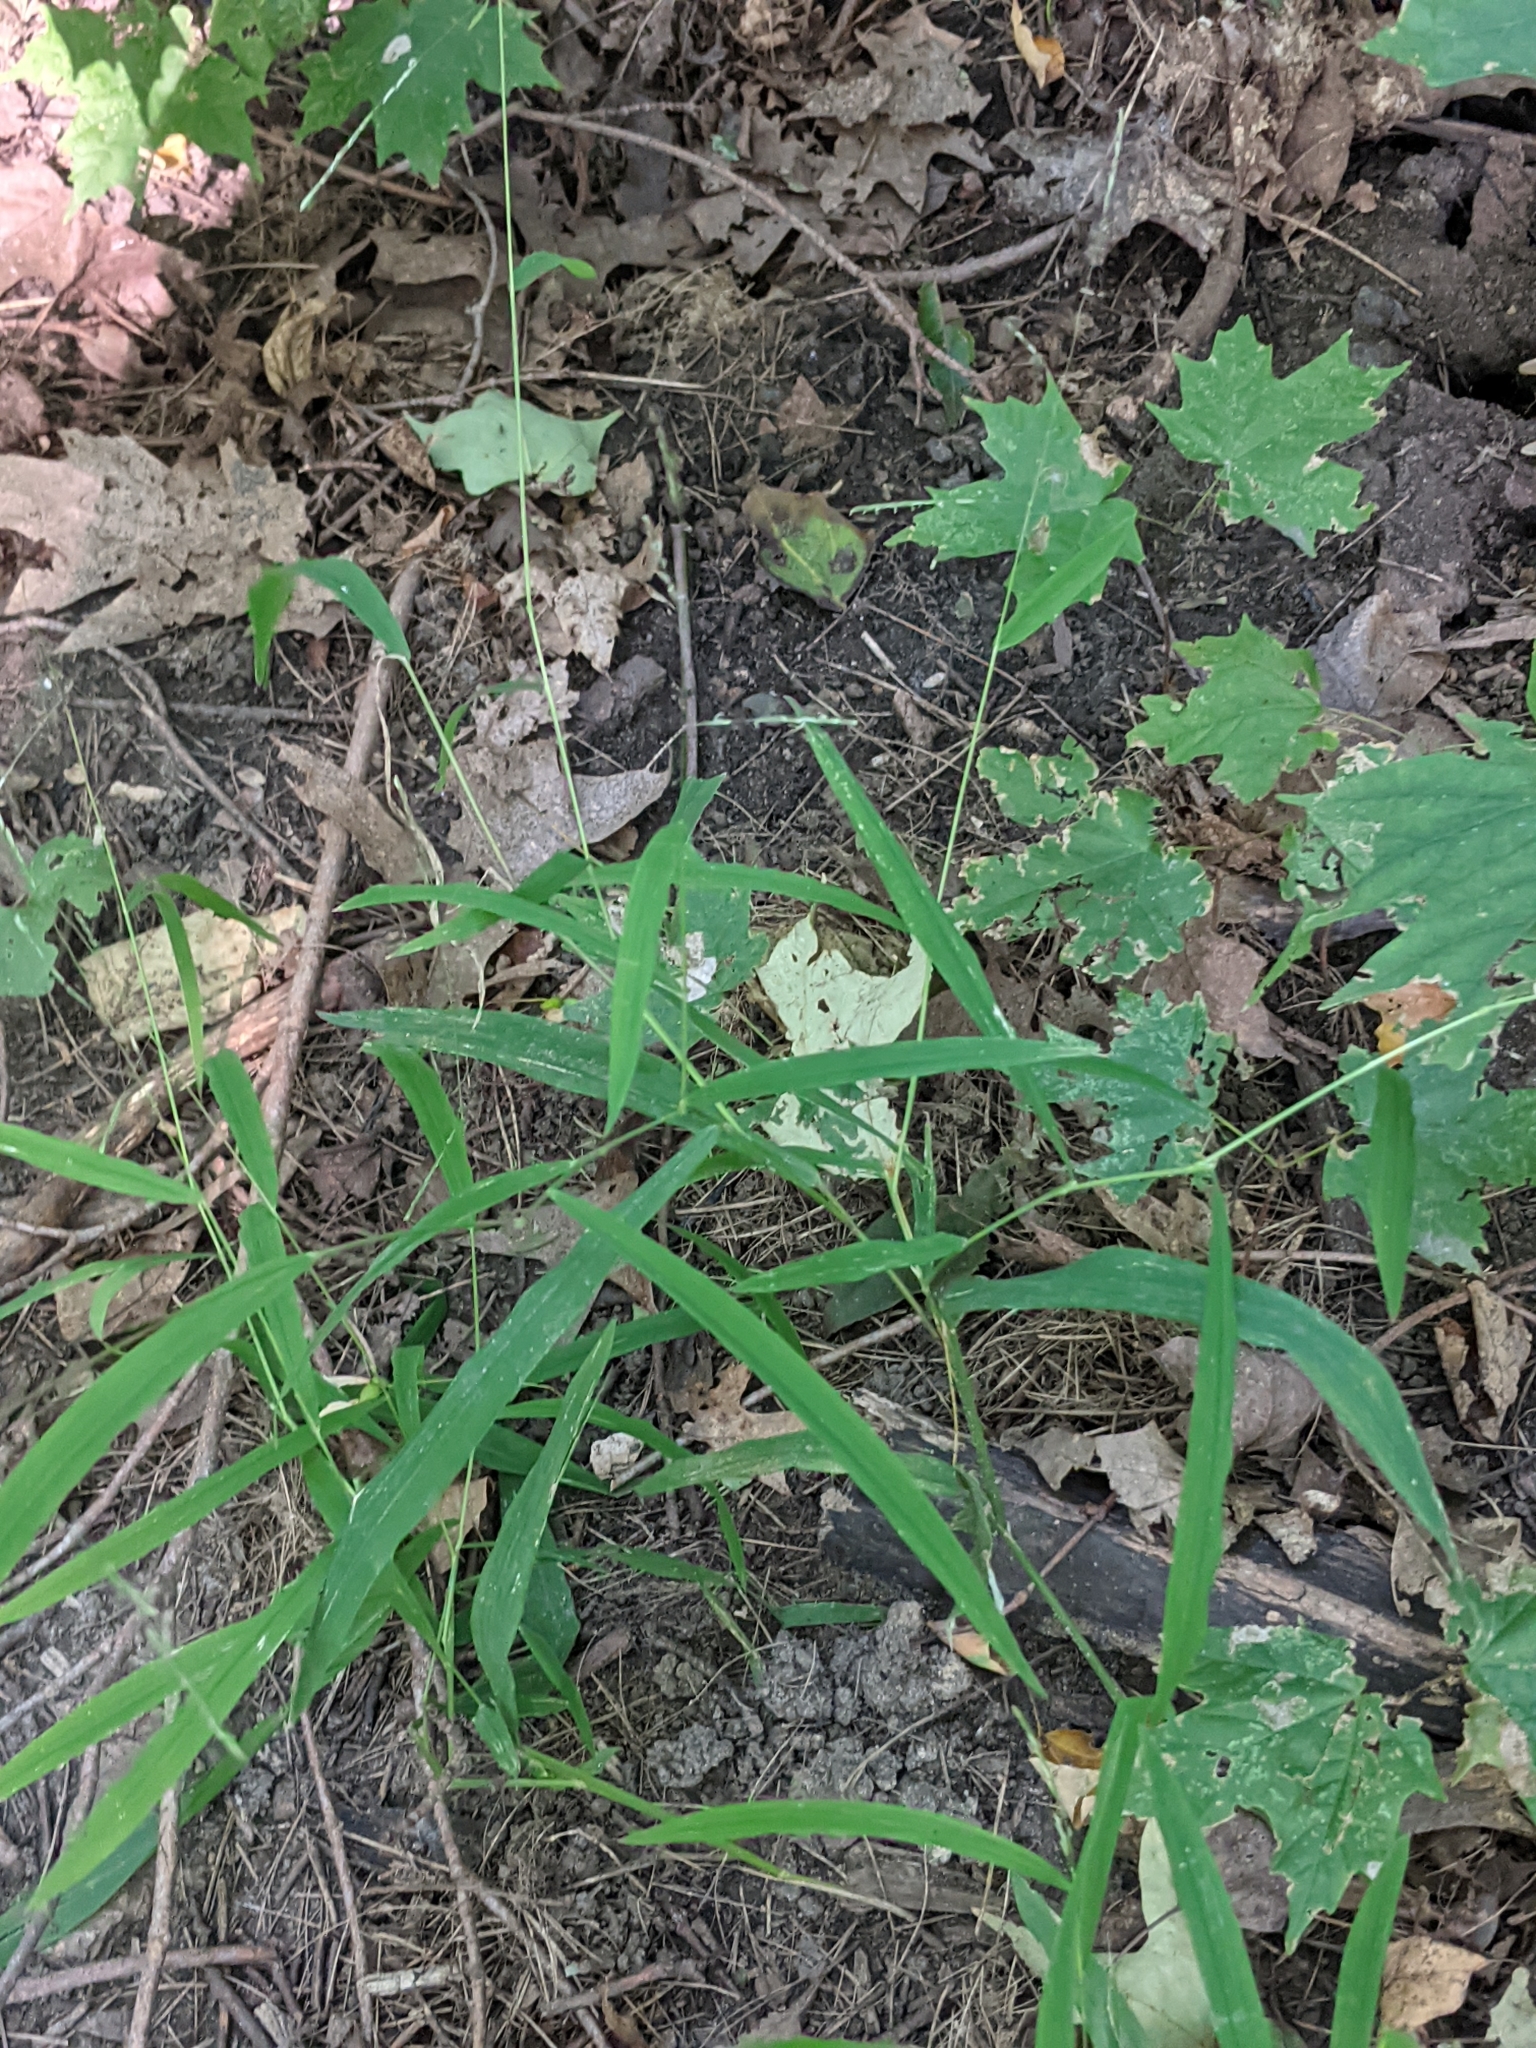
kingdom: Plantae
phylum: Tracheophyta
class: Liliopsida
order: Poales
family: Poaceae
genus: Leersia
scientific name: Leersia virginica
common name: White cutgrass
